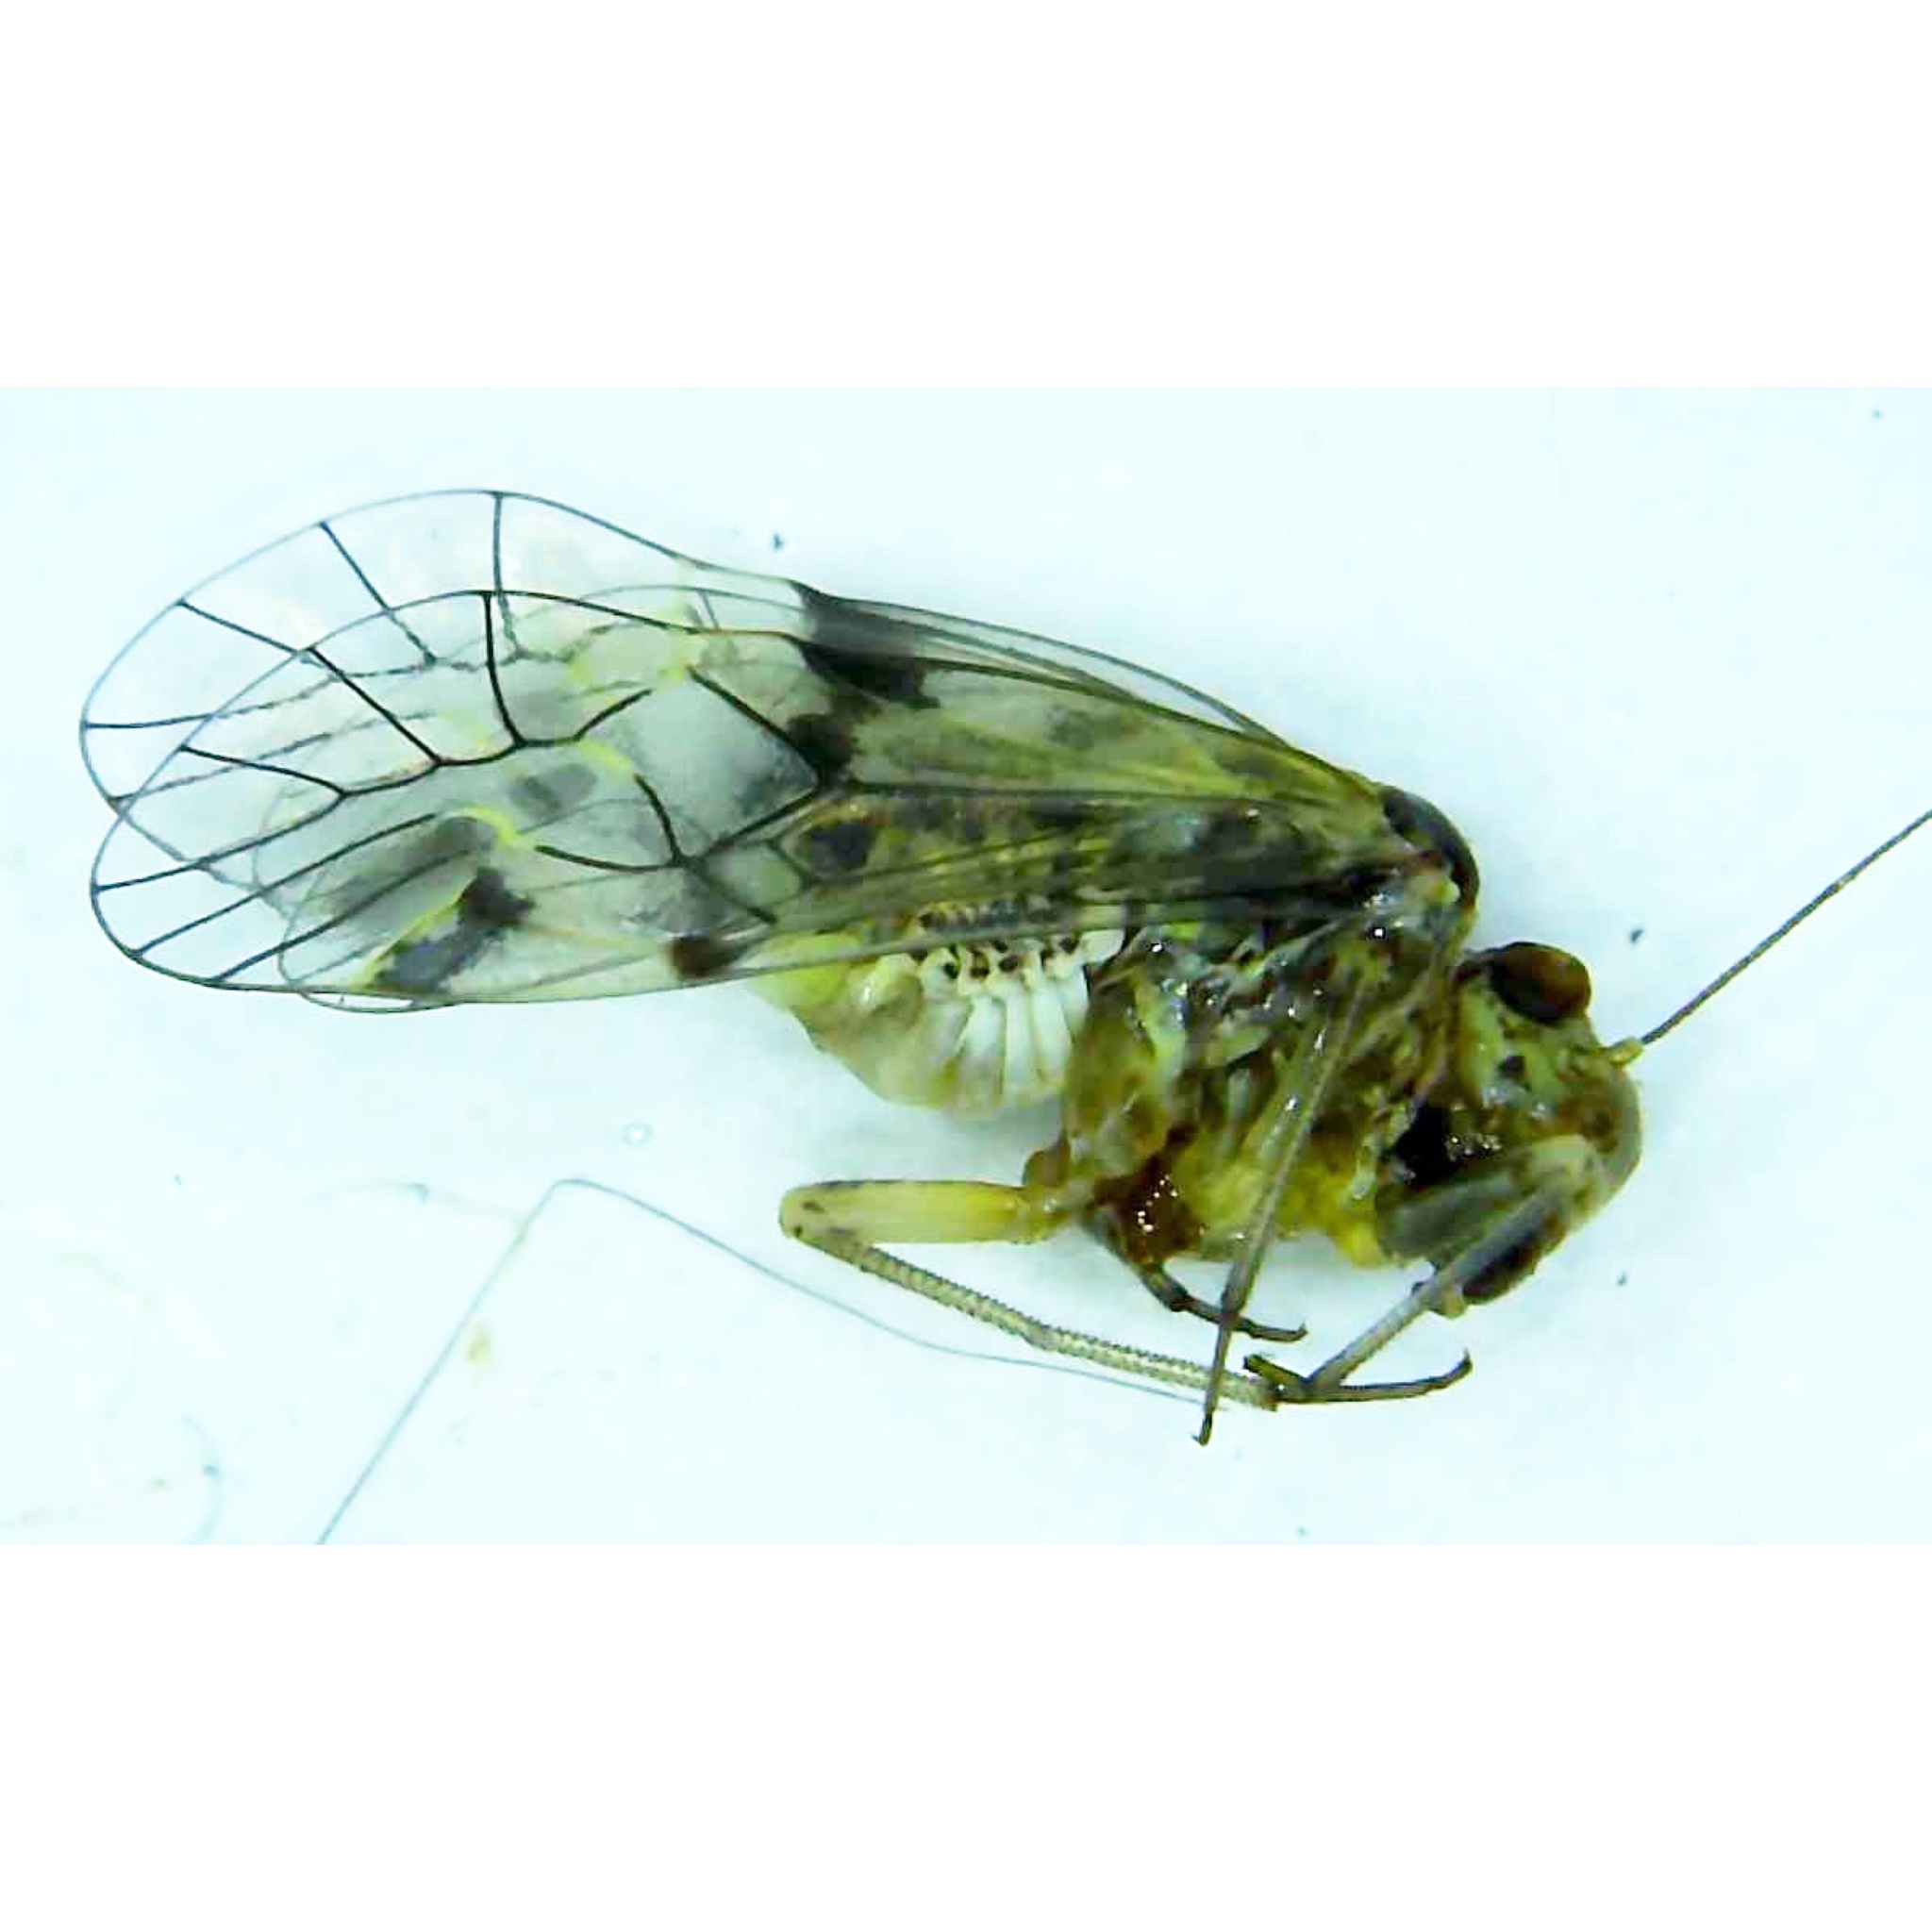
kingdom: Animalia
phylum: Arthropoda
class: Insecta
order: Psocodea
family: Psocidae
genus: Metylophorus
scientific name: Metylophorus novaescotiae
